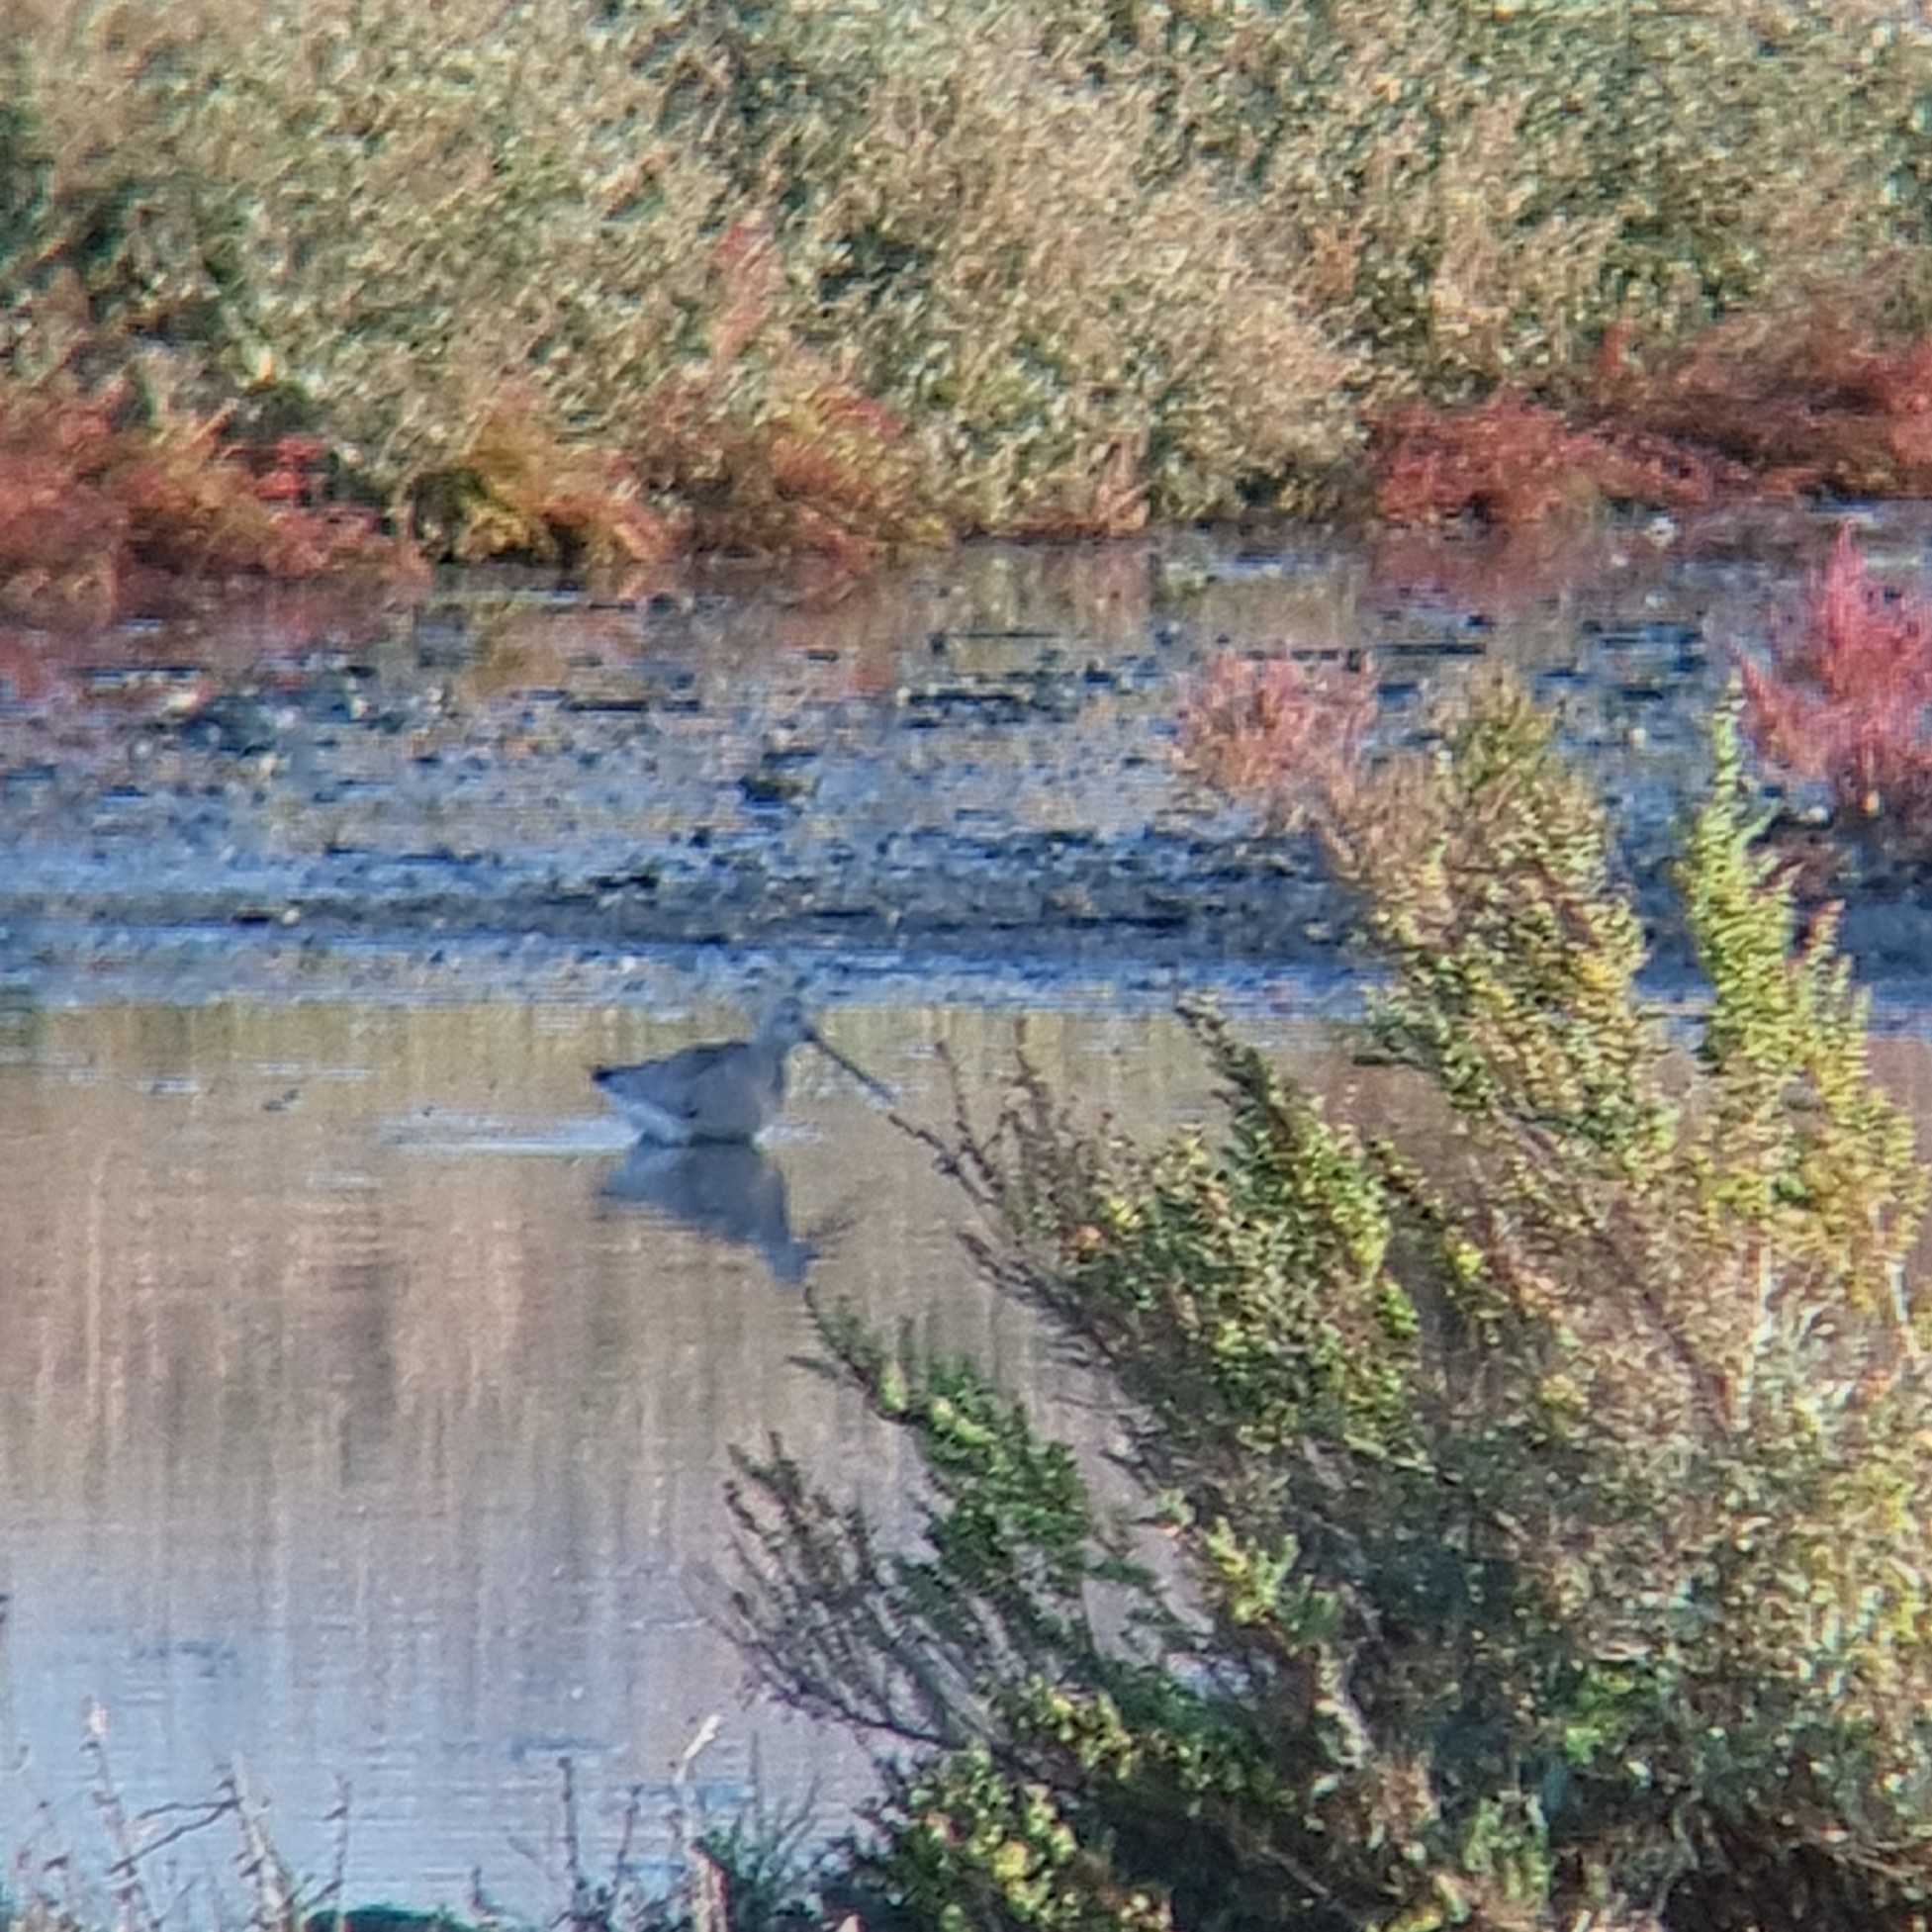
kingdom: Animalia
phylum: Chordata
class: Aves
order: Charadriiformes
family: Scolopacidae
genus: Limosa
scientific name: Limosa lapponica
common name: Bar-tailed godwit
